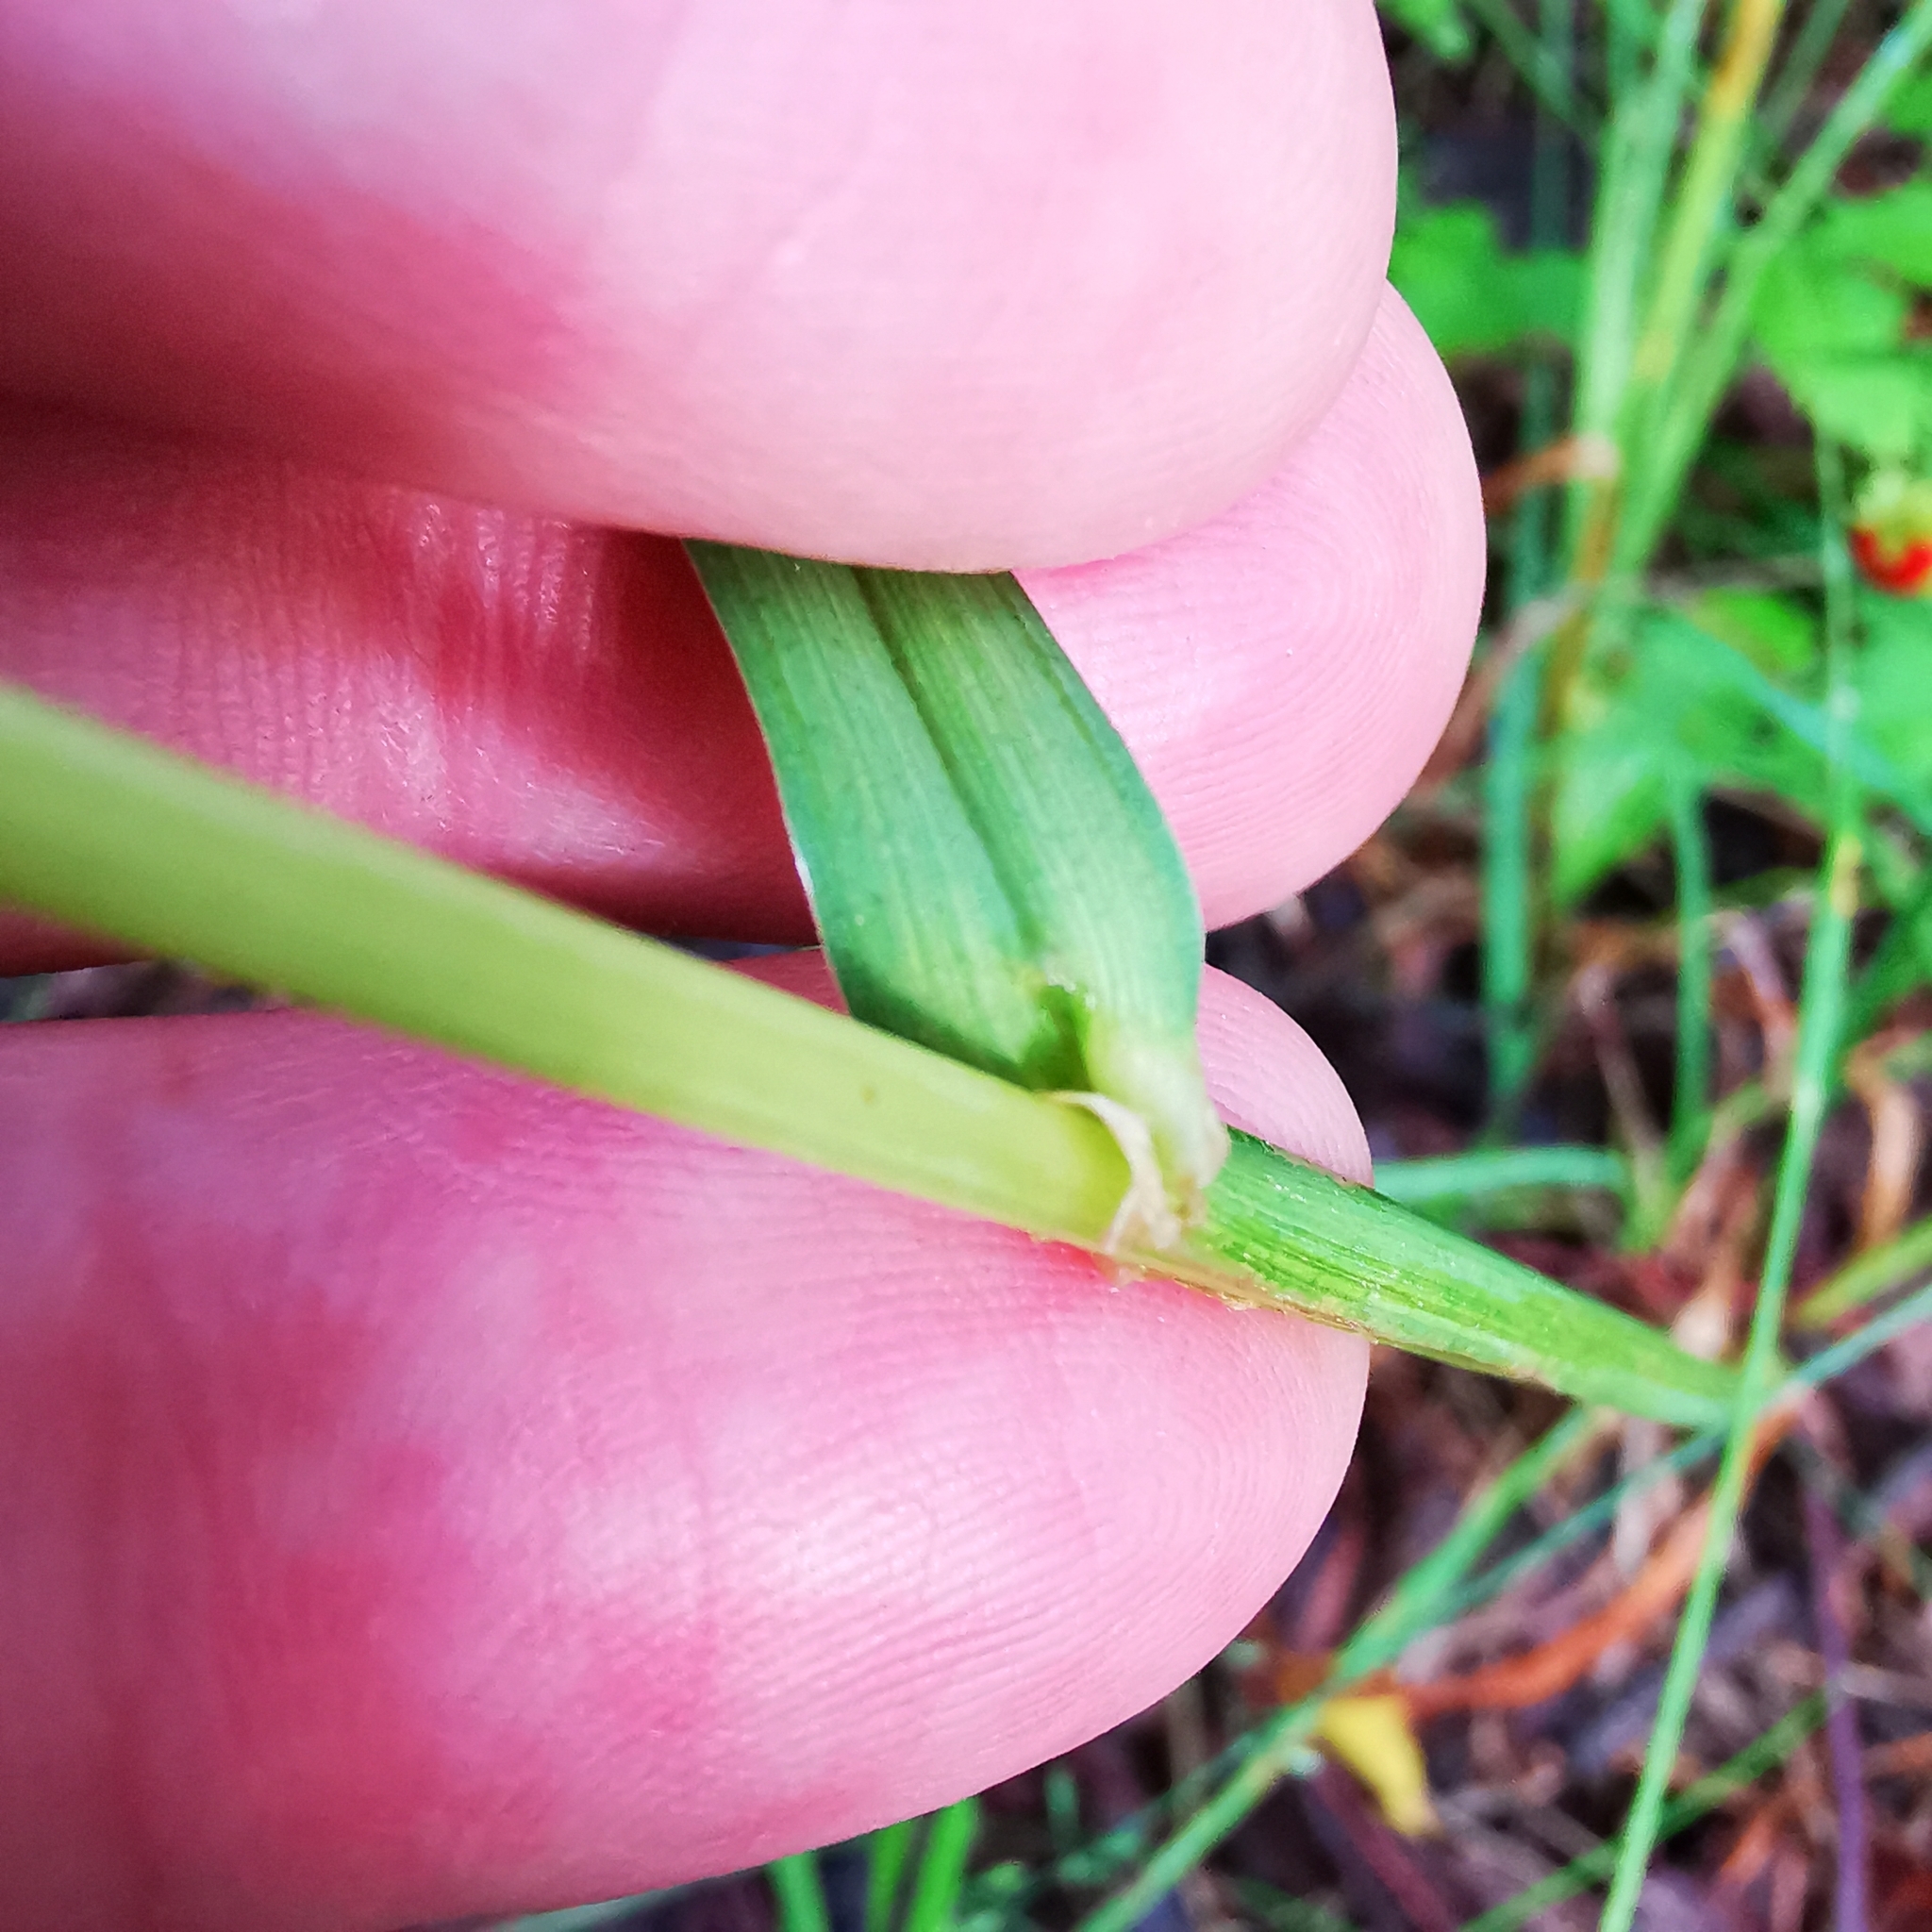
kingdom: Fungi
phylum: Ascomycota
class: Sordariomycetes
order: Hypocreales
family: Clavicipitaceae
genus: Epichloe
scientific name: Epichloe typhina
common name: Choke
